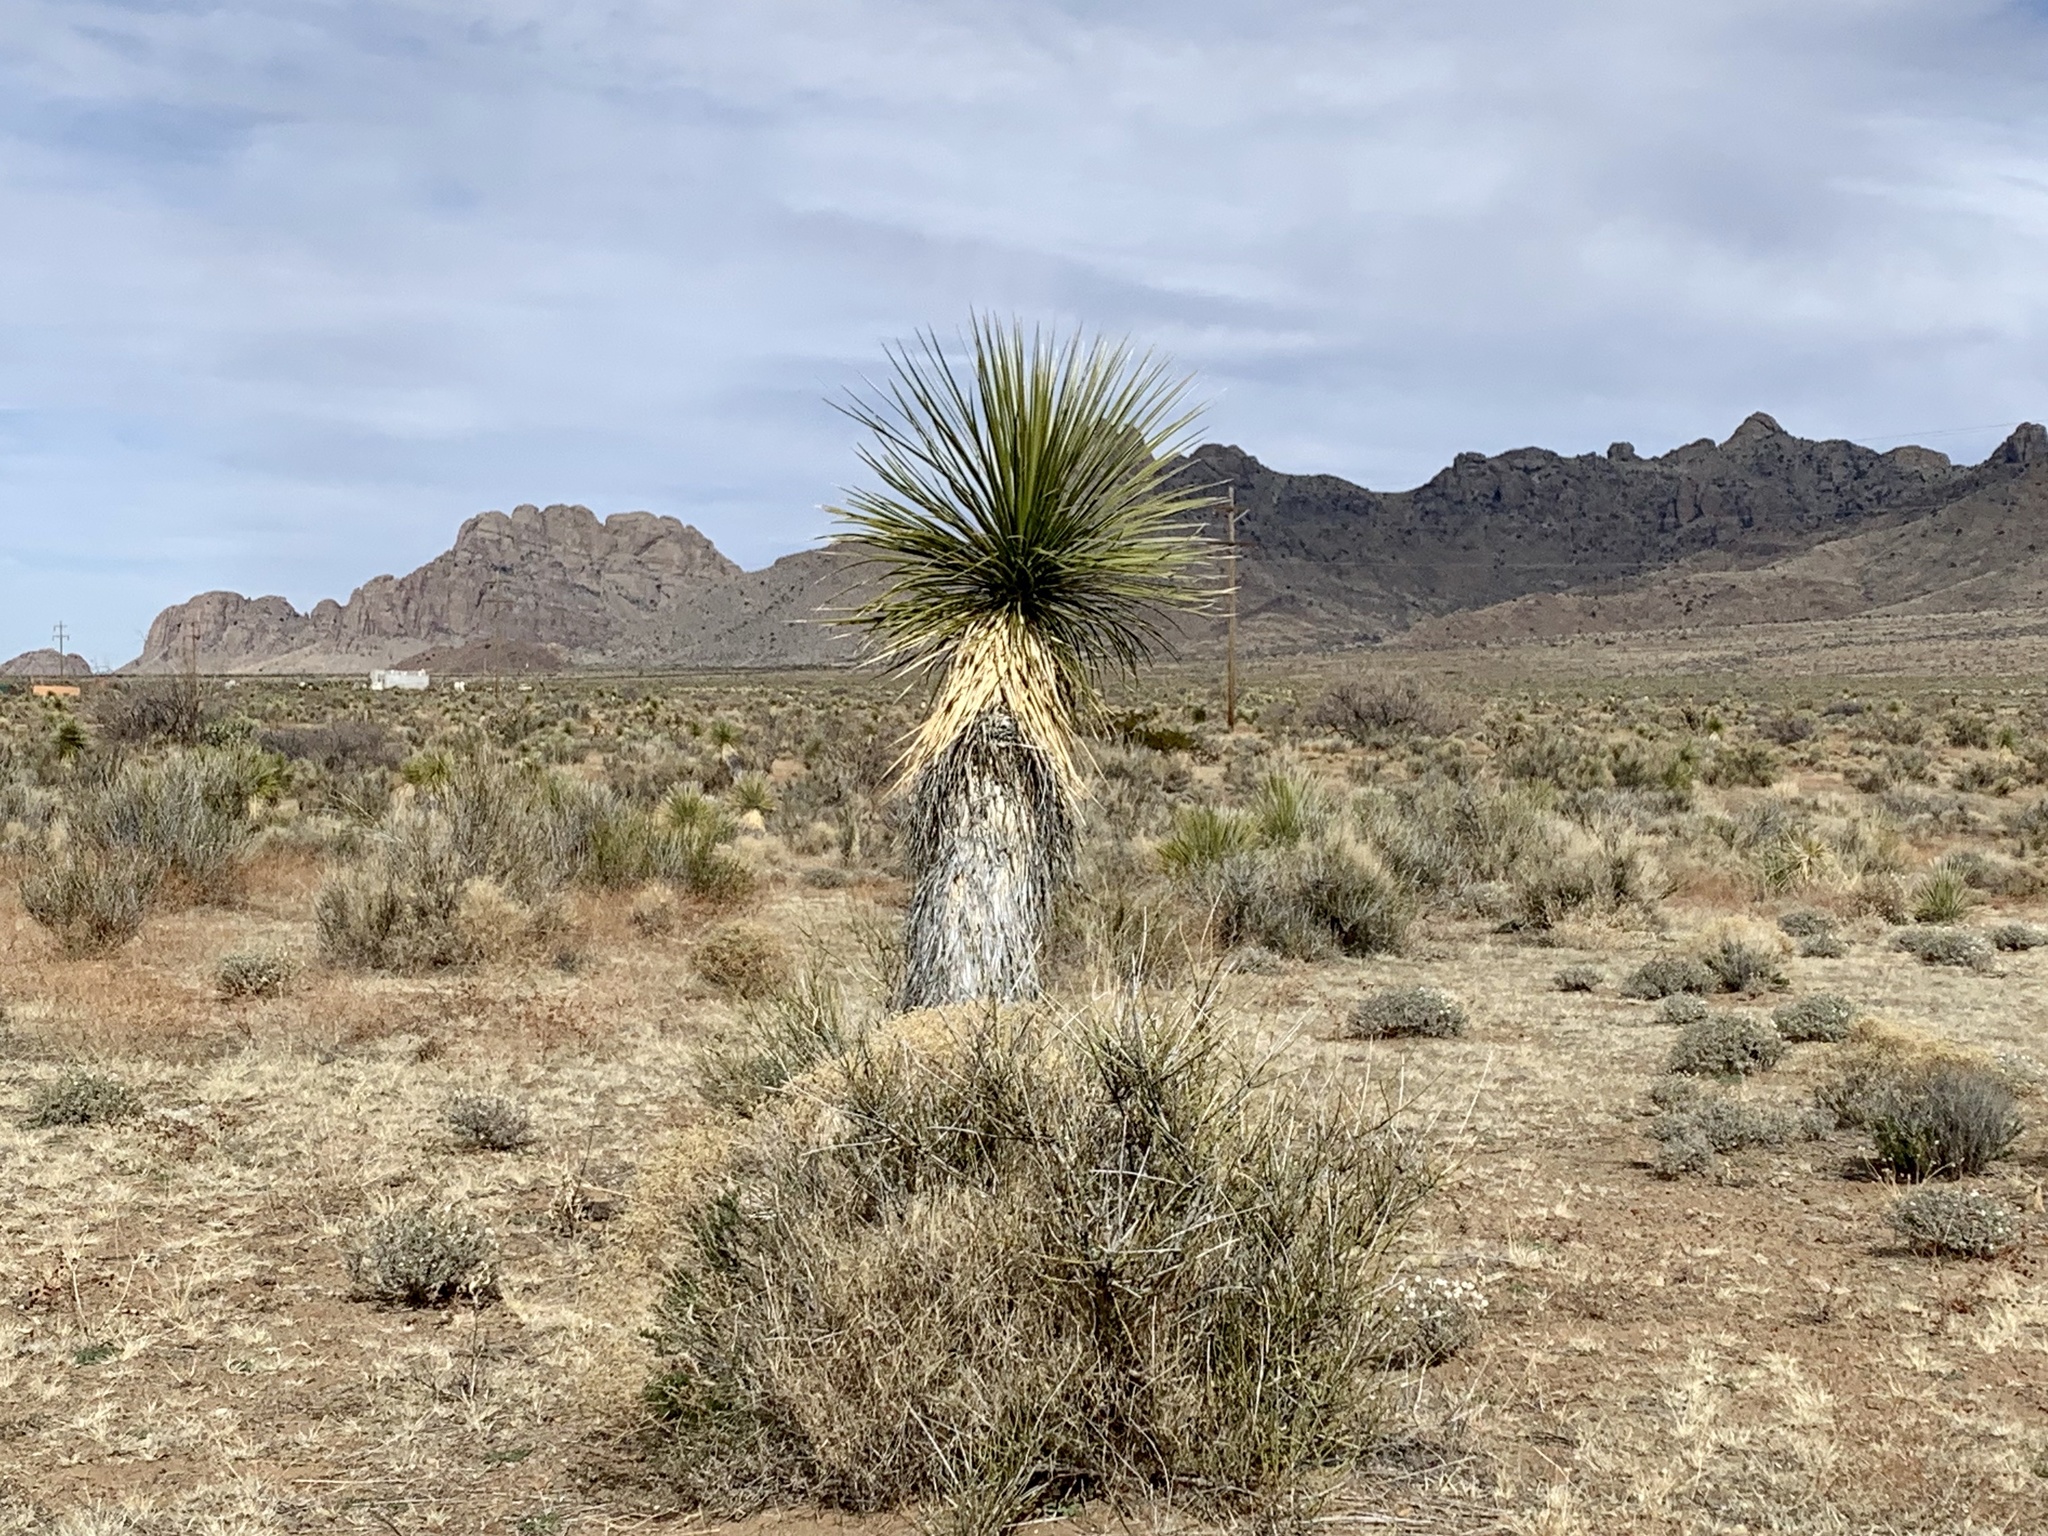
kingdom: Plantae
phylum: Tracheophyta
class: Liliopsida
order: Asparagales
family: Asparagaceae
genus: Yucca
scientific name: Yucca elata
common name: Palmella
